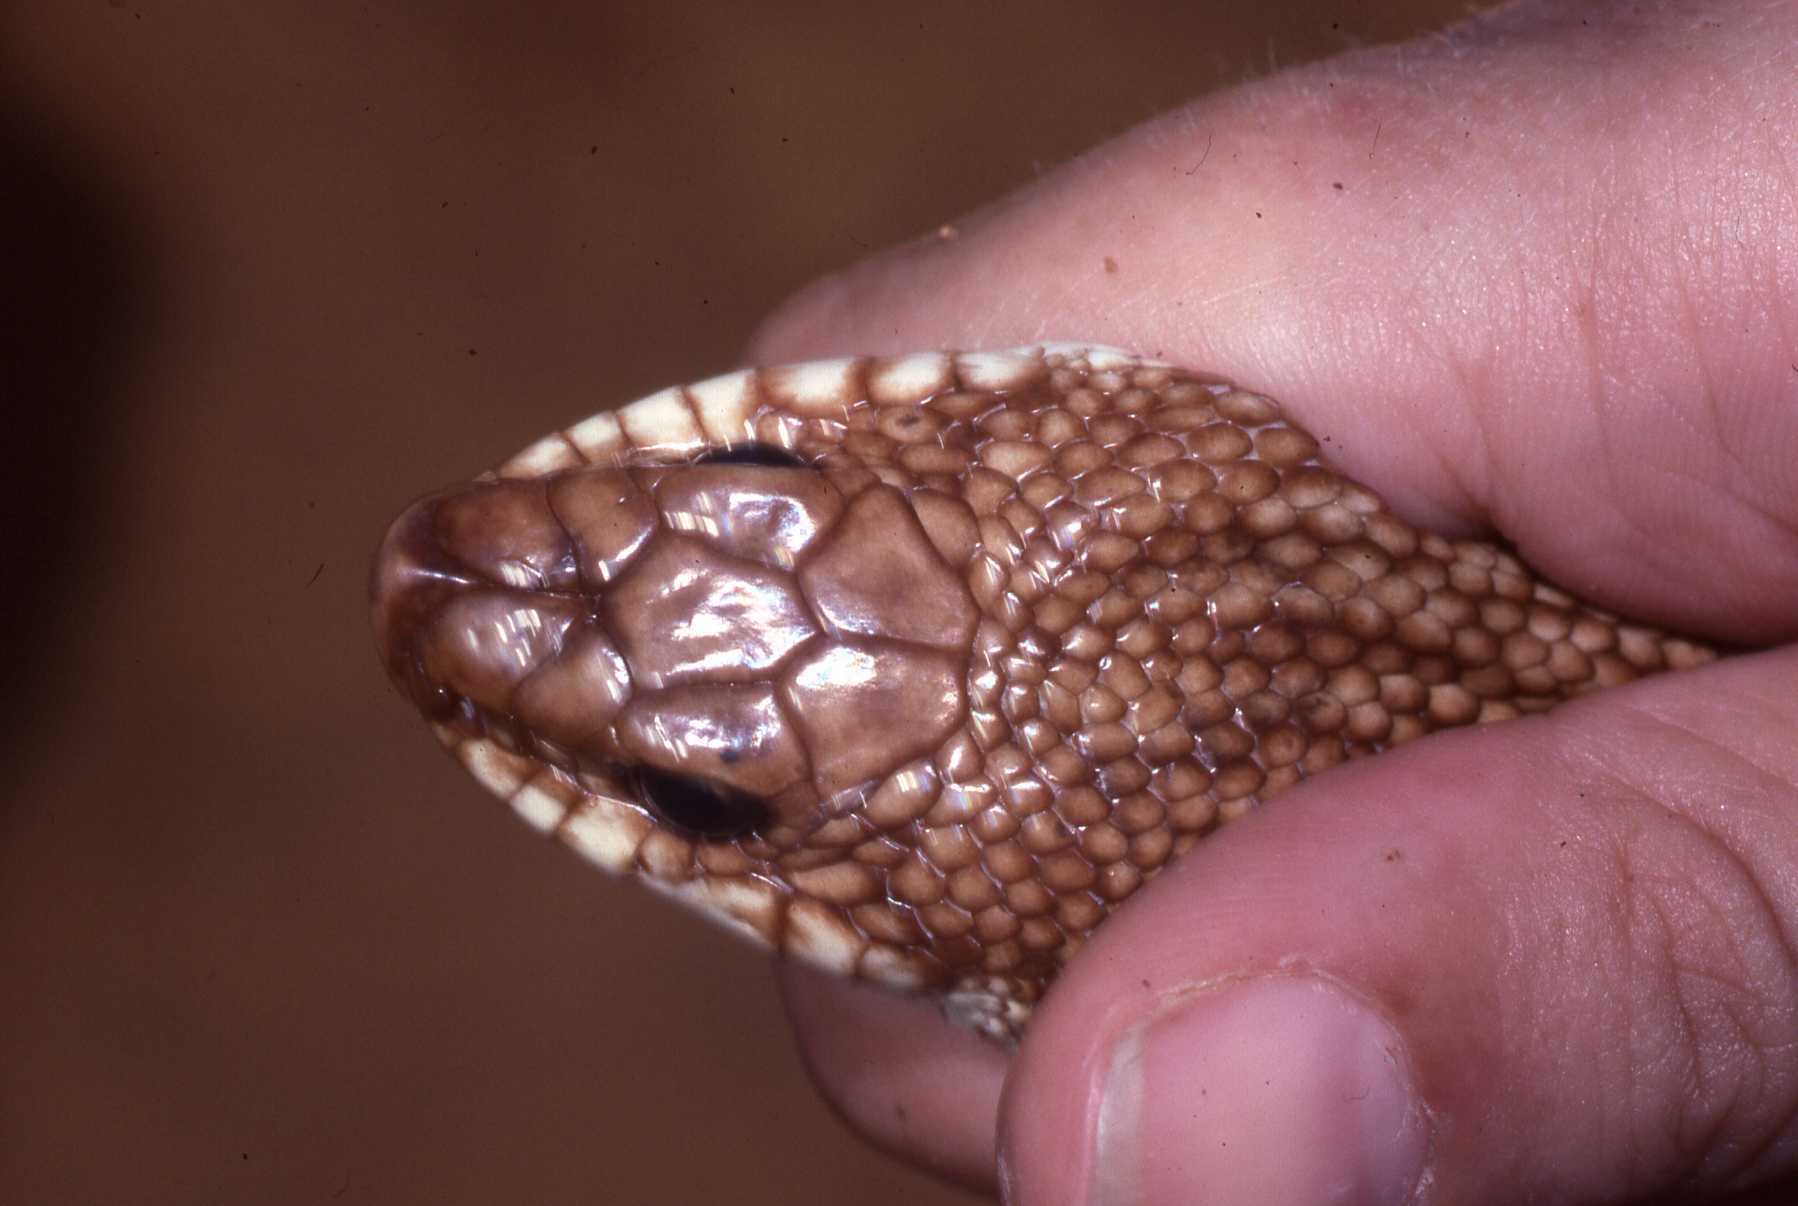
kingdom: Animalia
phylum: Chordata
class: Squamata
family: Pseudoxyrhophiidae
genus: Leioheterodon
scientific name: Leioheterodon geayi
